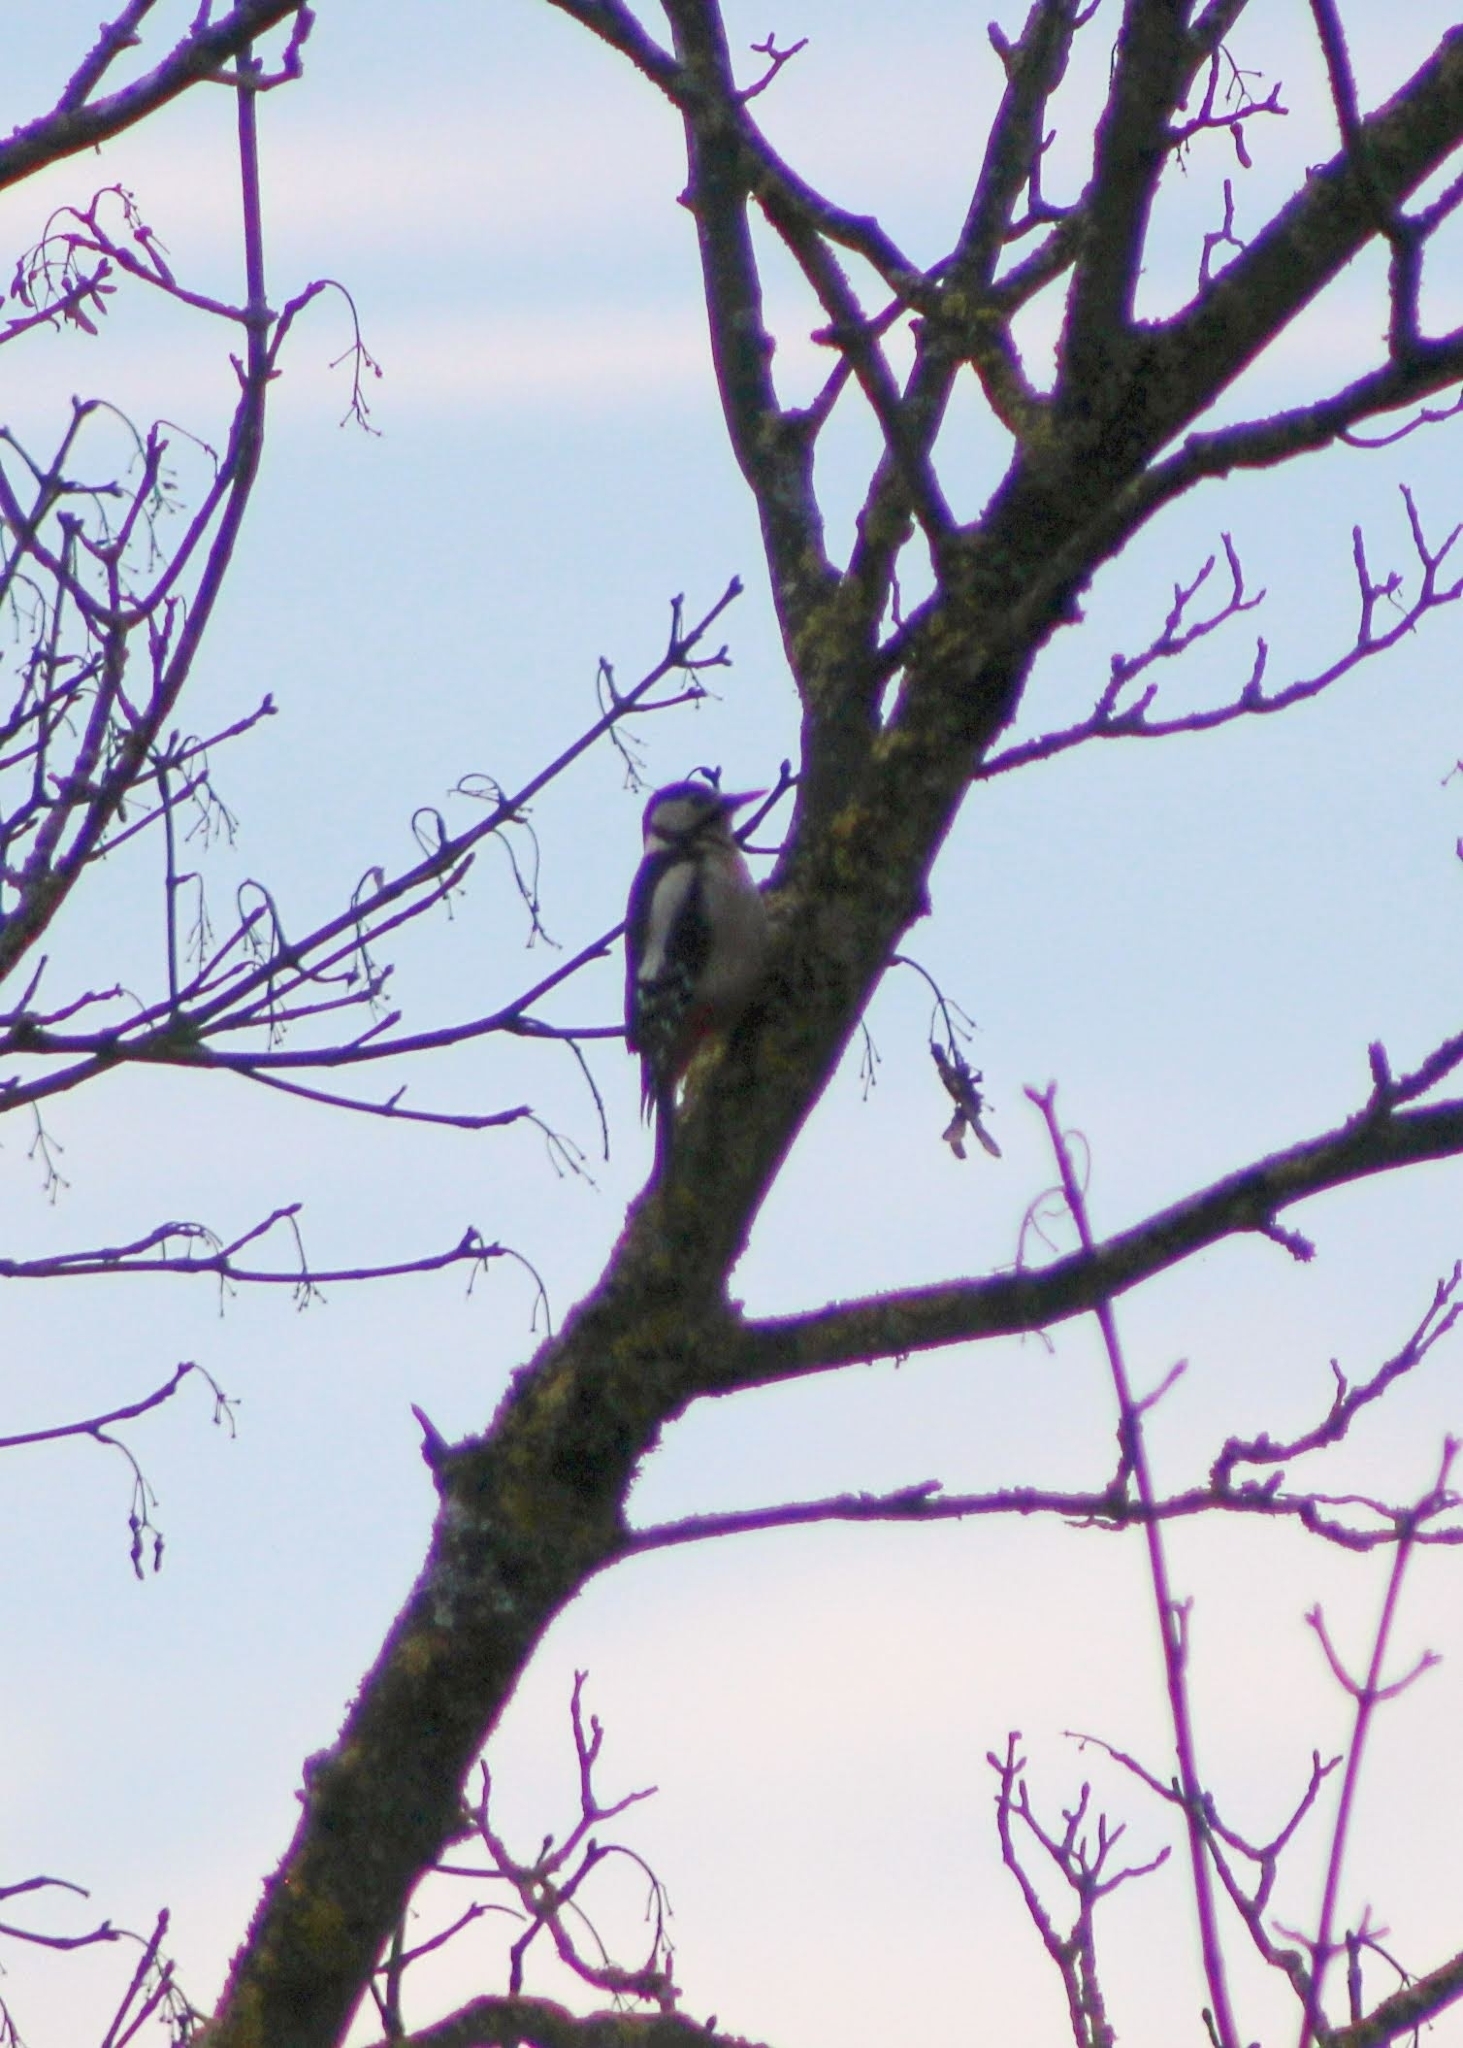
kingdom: Animalia
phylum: Chordata
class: Aves
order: Piciformes
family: Picidae
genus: Dendrocopos
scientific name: Dendrocopos major
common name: Great spotted woodpecker
